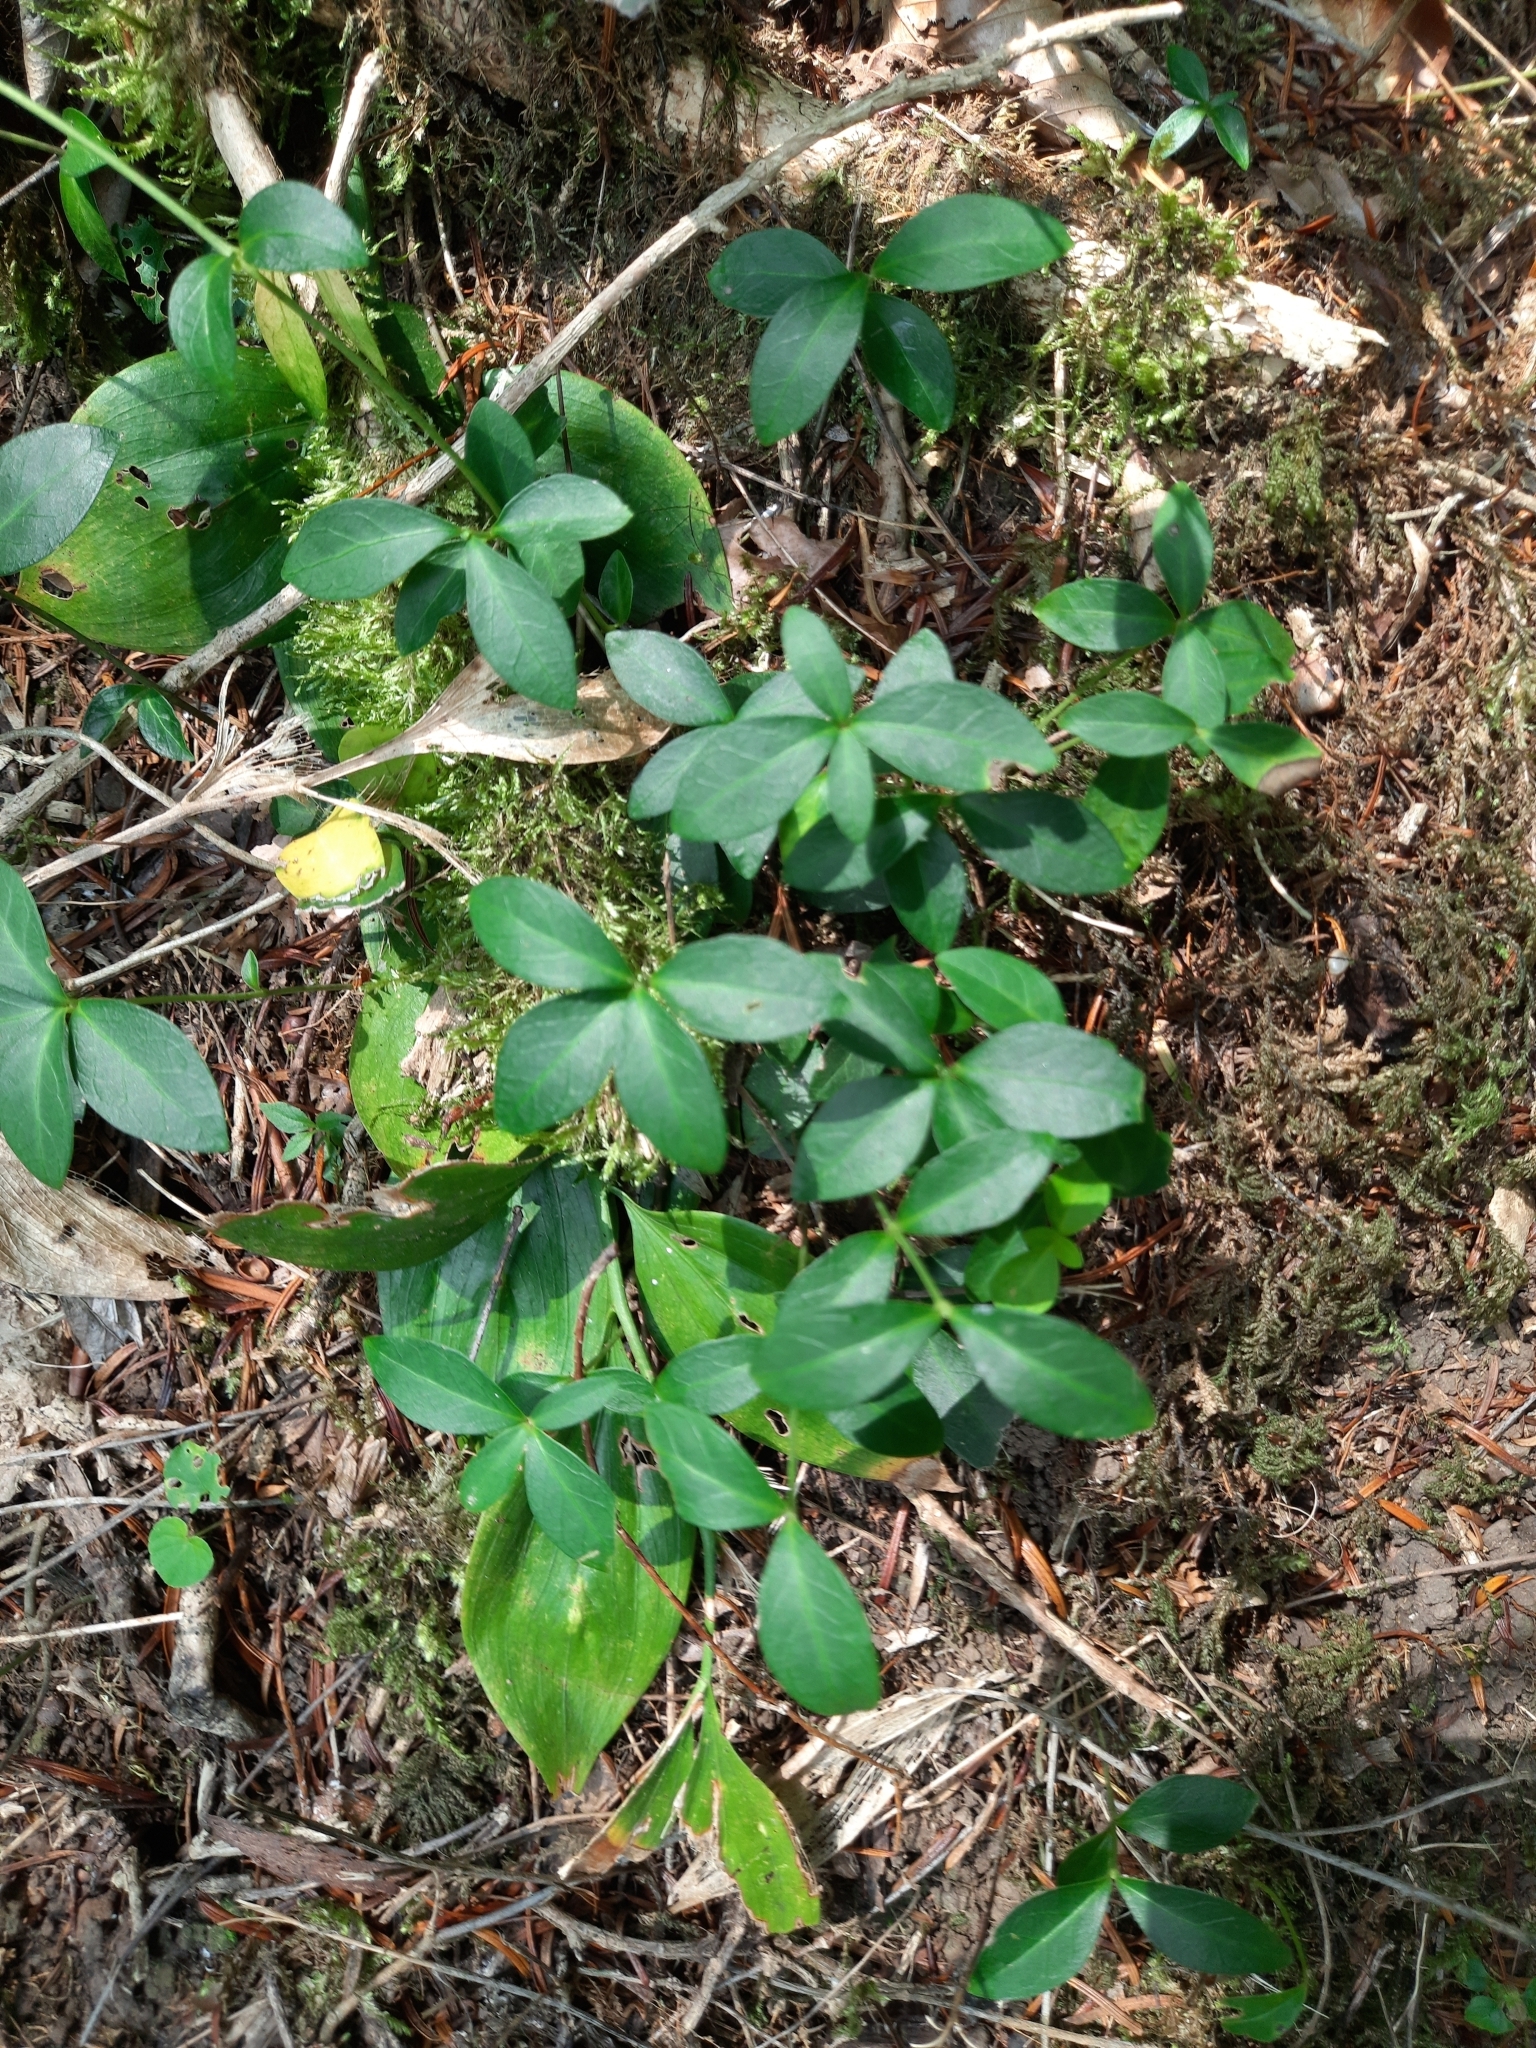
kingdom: Plantae
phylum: Tracheophyta
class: Magnoliopsida
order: Gentianales
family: Apocynaceae
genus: Vinca
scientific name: Vinca minor
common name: Lesser periwinkle
